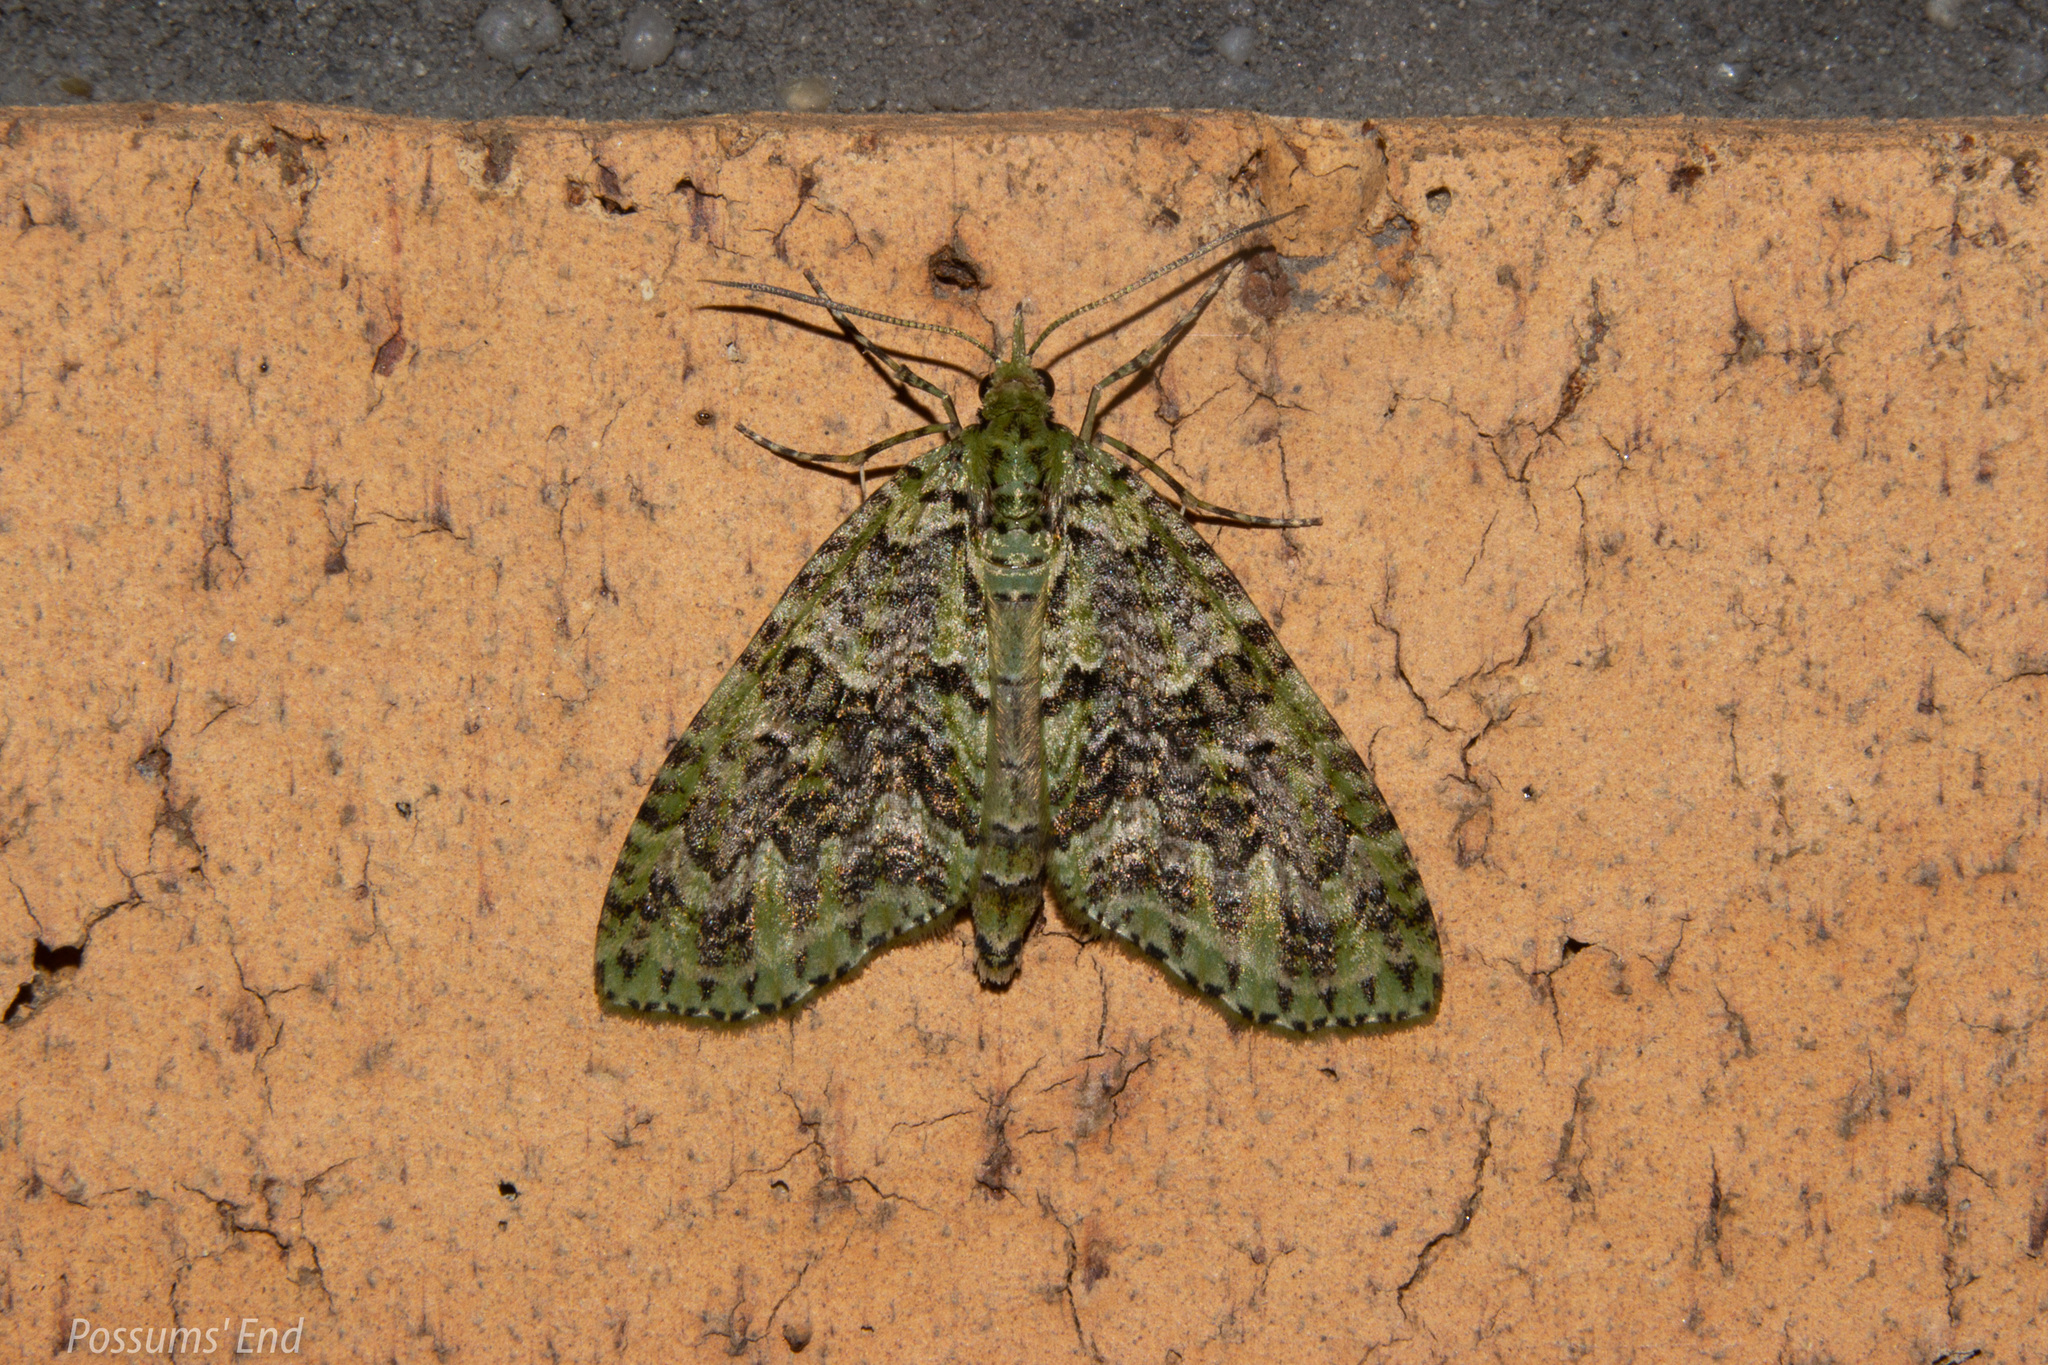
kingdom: Animalia
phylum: Arthropoda
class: Insecta
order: Lepidoptera
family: Geometridae
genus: Tatosoma
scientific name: Tatosoma tipulata
